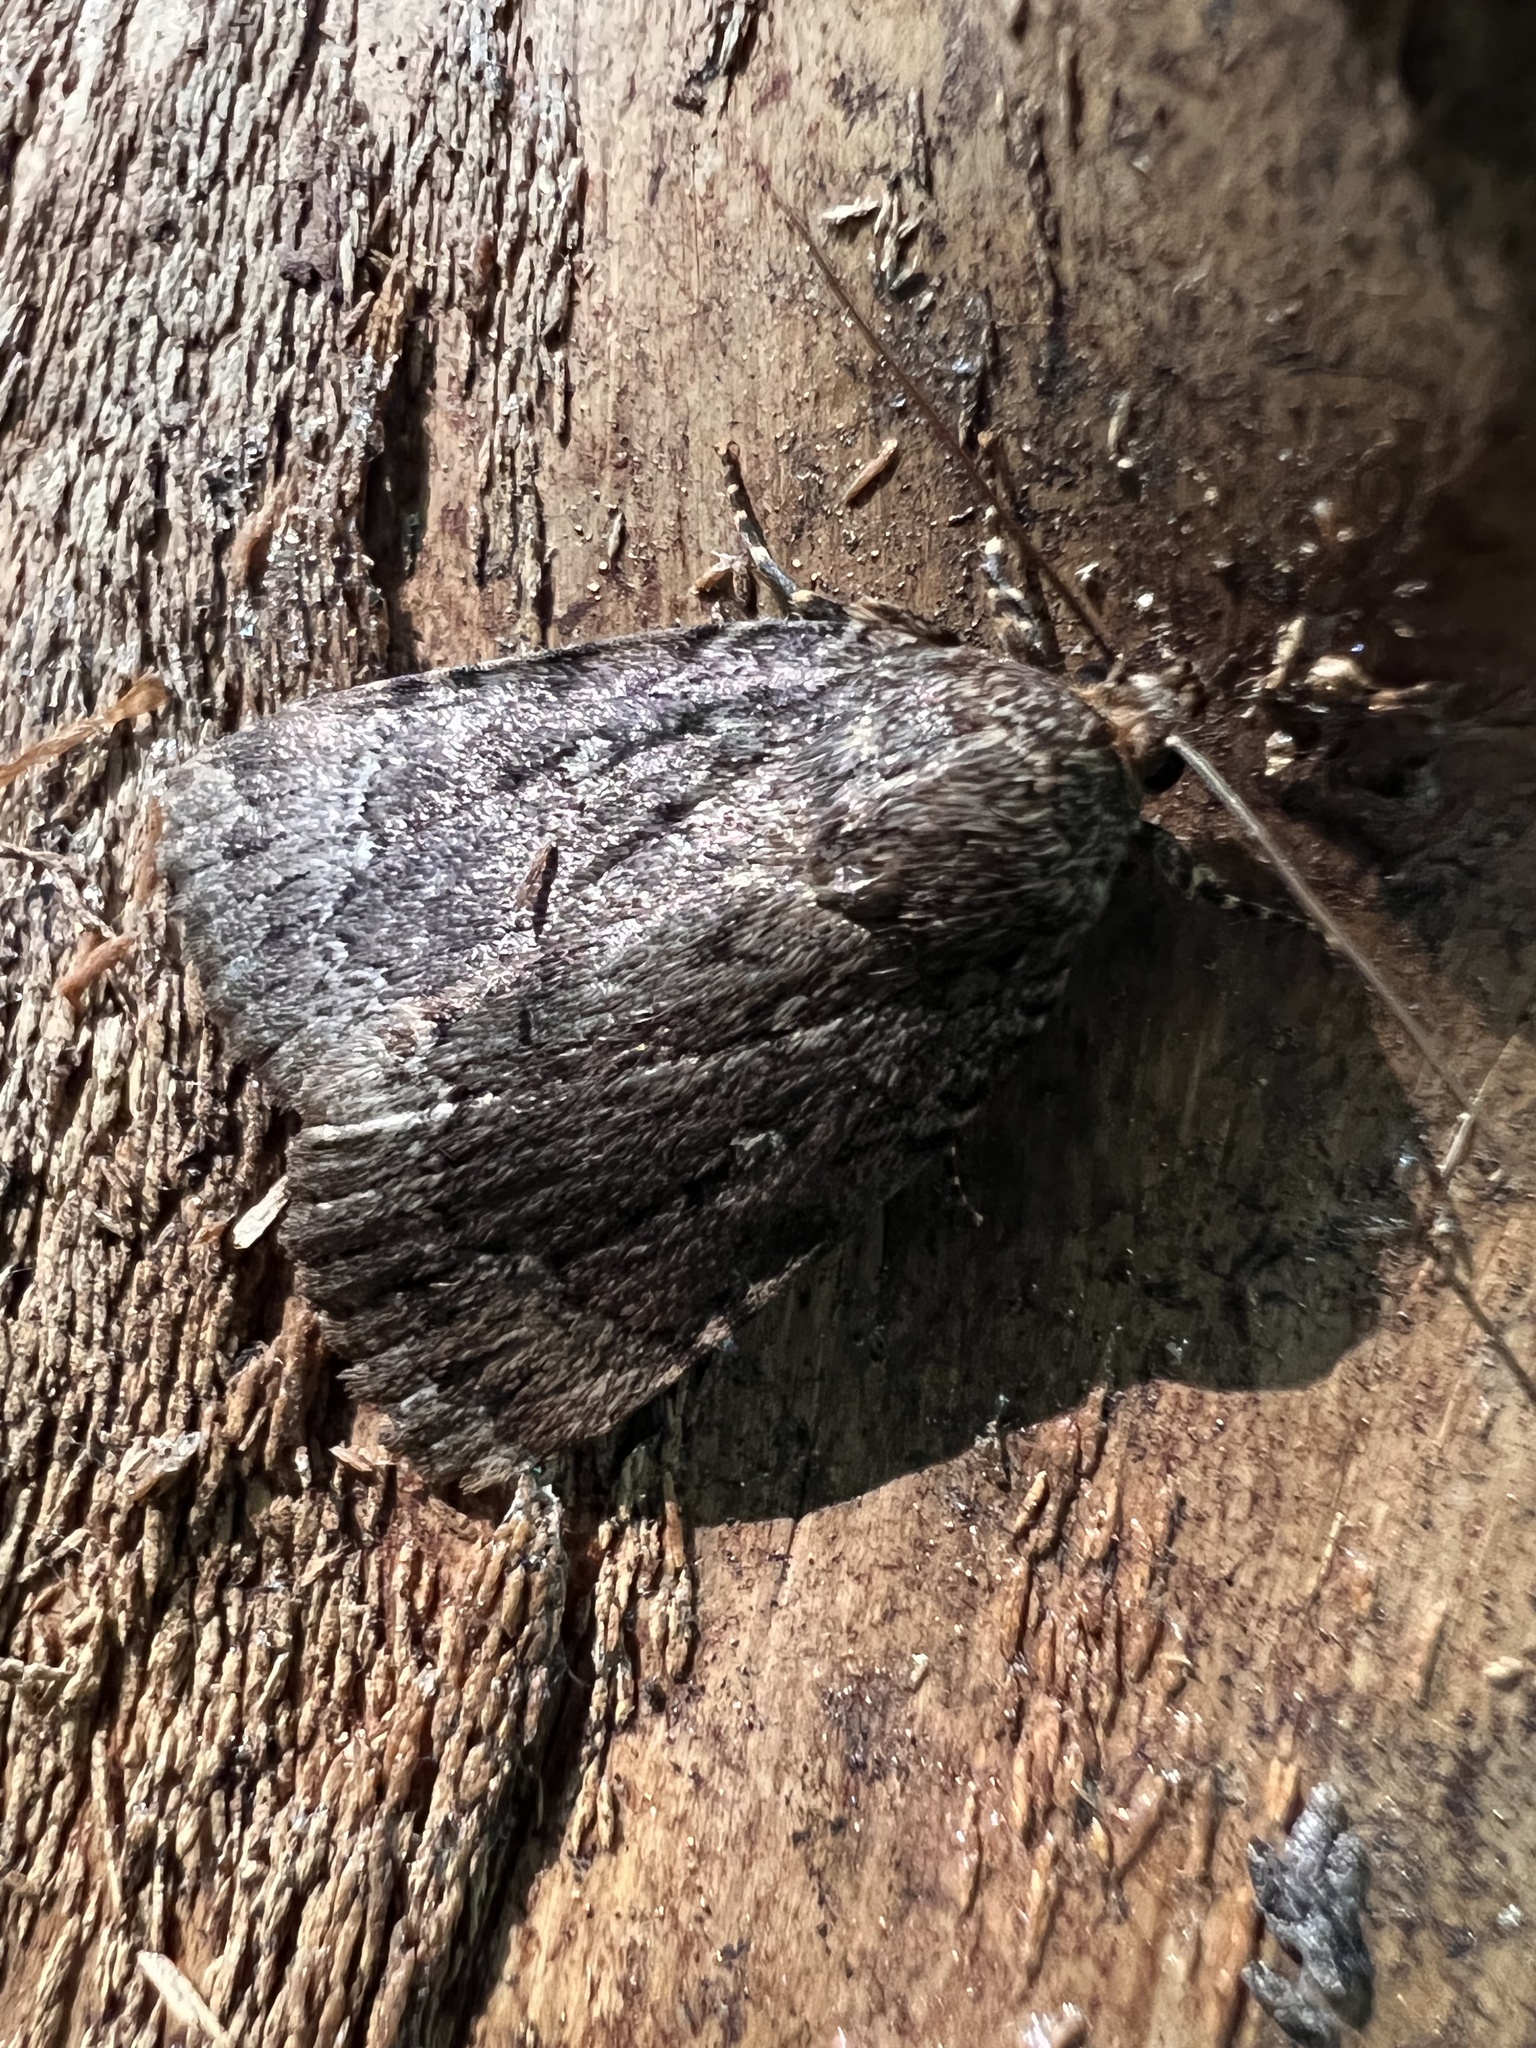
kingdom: Animalia
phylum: Arthropoda
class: Insecta
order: Lepidoptera
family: Noctuidae
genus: Amphipyra
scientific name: Amphipyra pyramidoides
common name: American copper underwing
